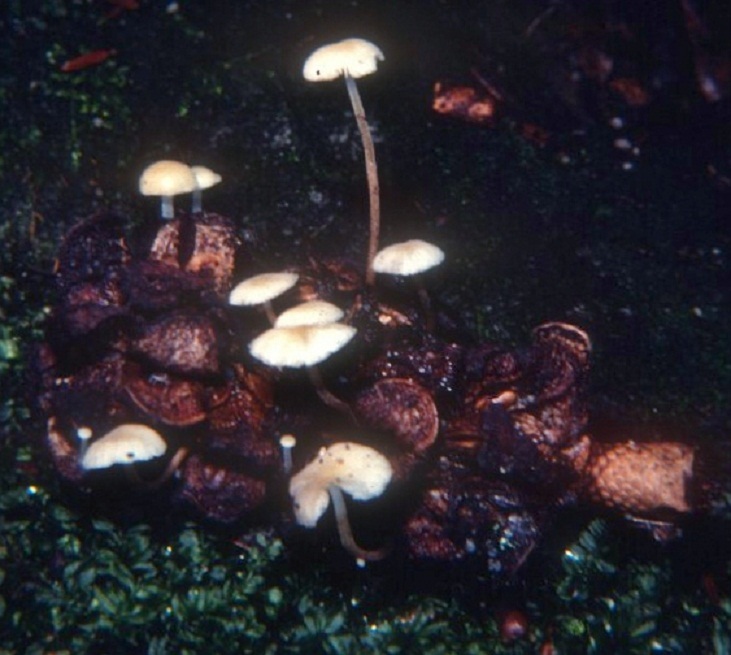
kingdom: Fungi
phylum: Basidiomycota
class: Agaricomycetes
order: Agaricales
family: Physalacriaceae
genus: Strobilurus
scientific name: Strobilurus conigenoides
